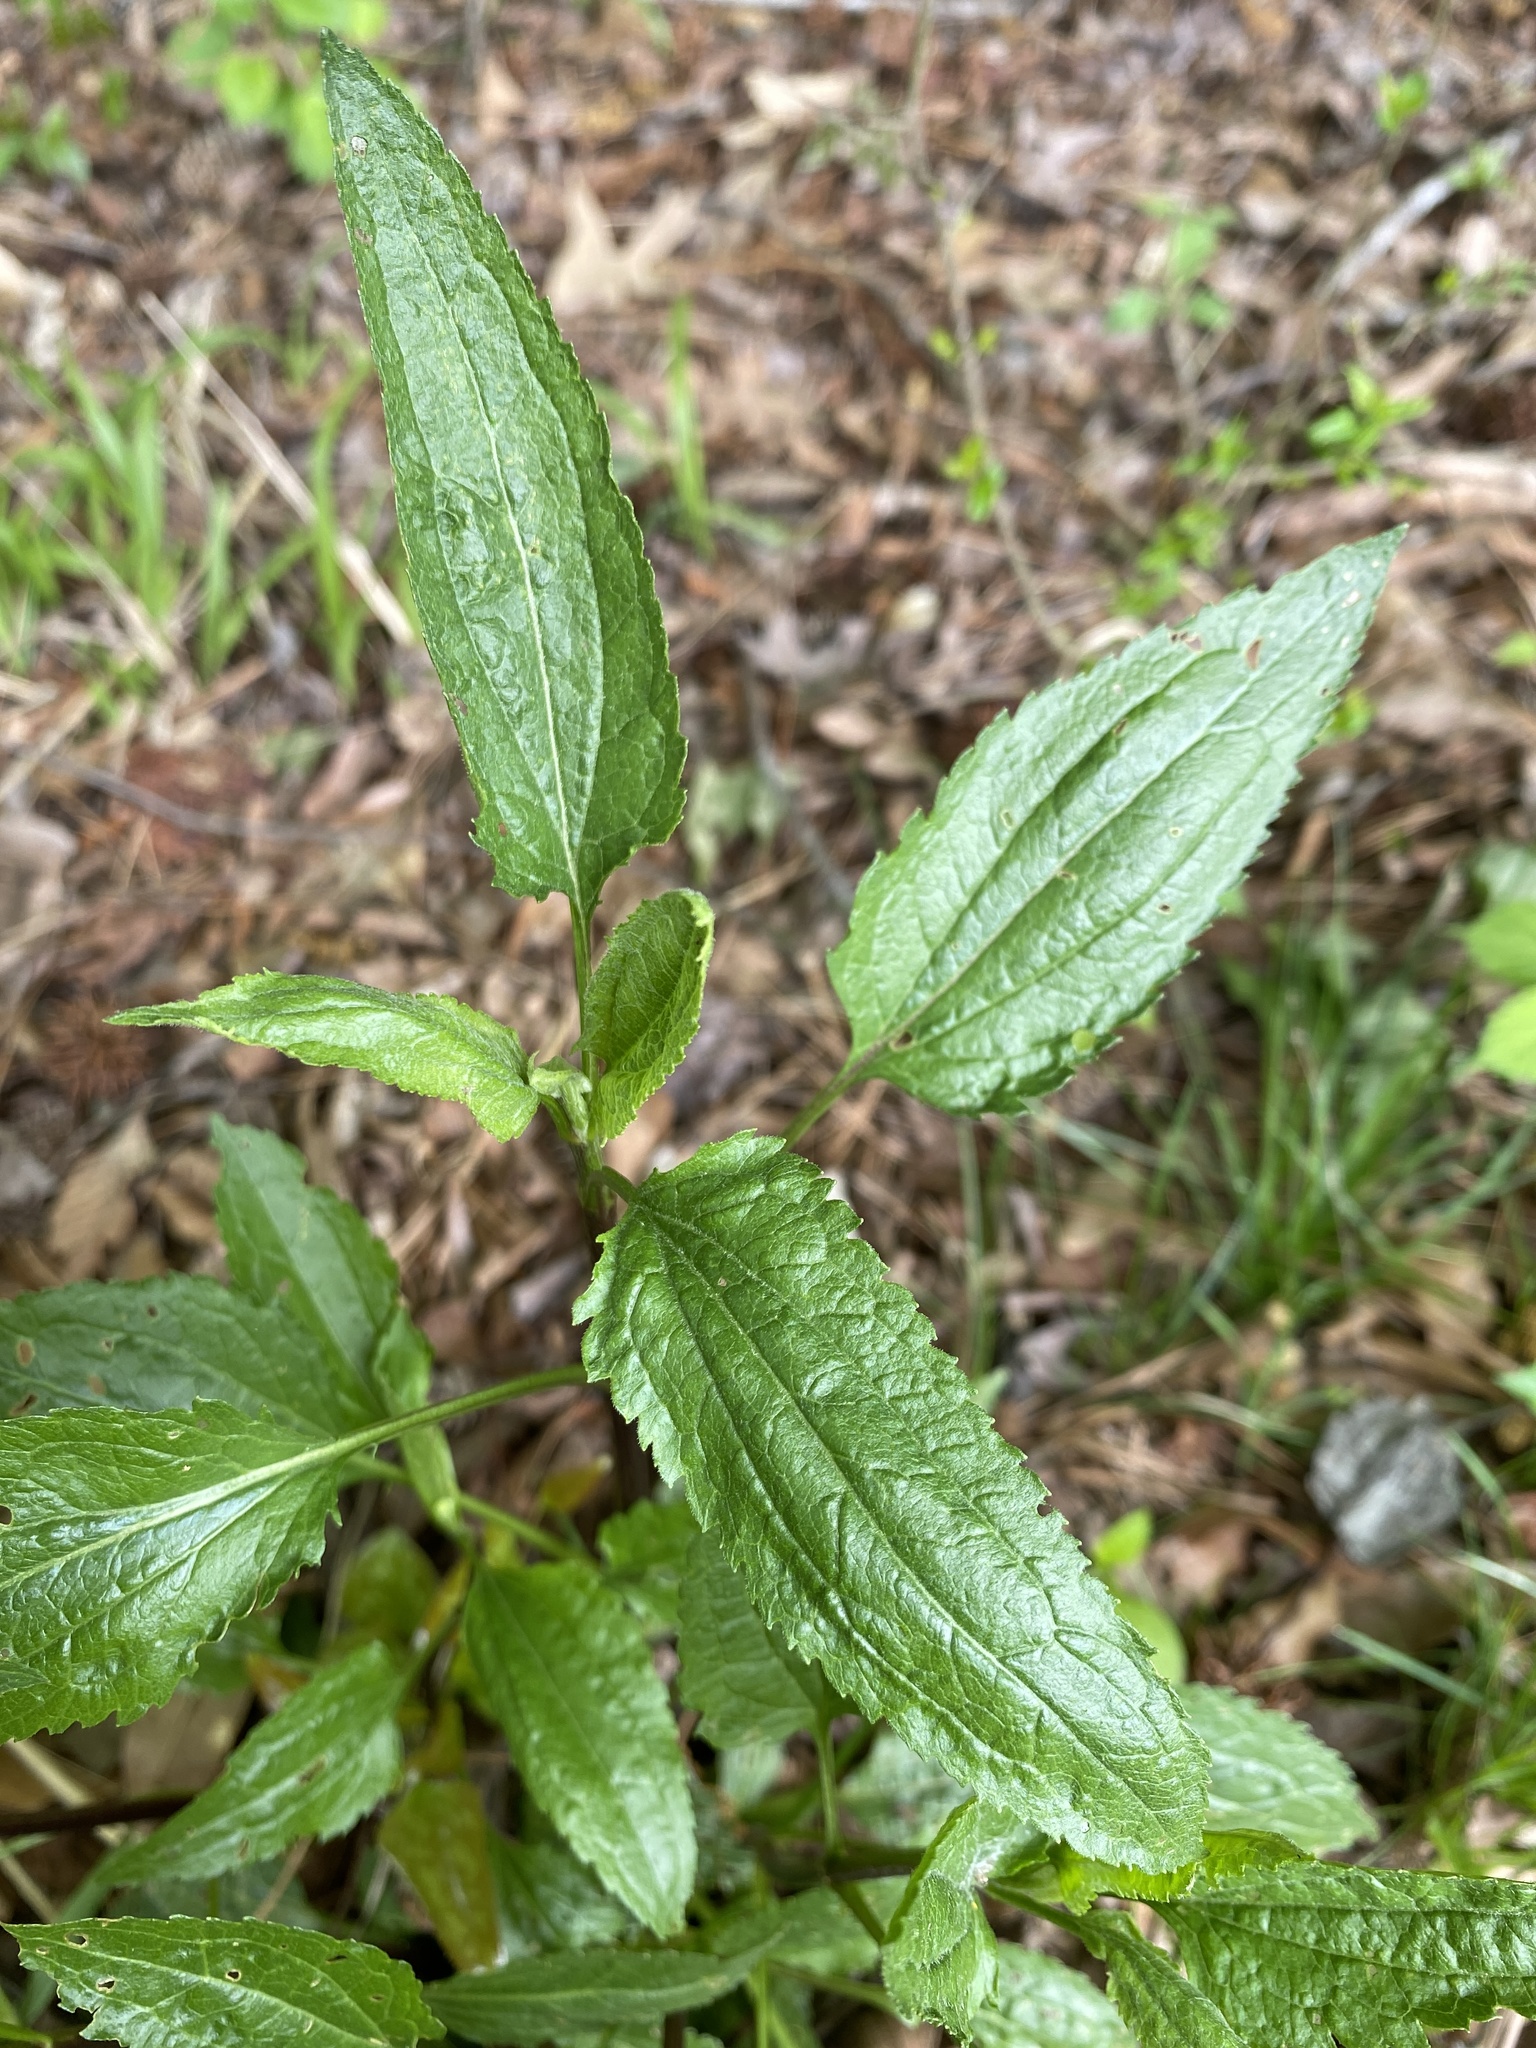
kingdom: Plantae
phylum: Tracheophyta
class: Magnoliopsida
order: Asterales
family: Asteraceae
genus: Eupatorium
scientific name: Eupatorium serotinum
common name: Late boneset
